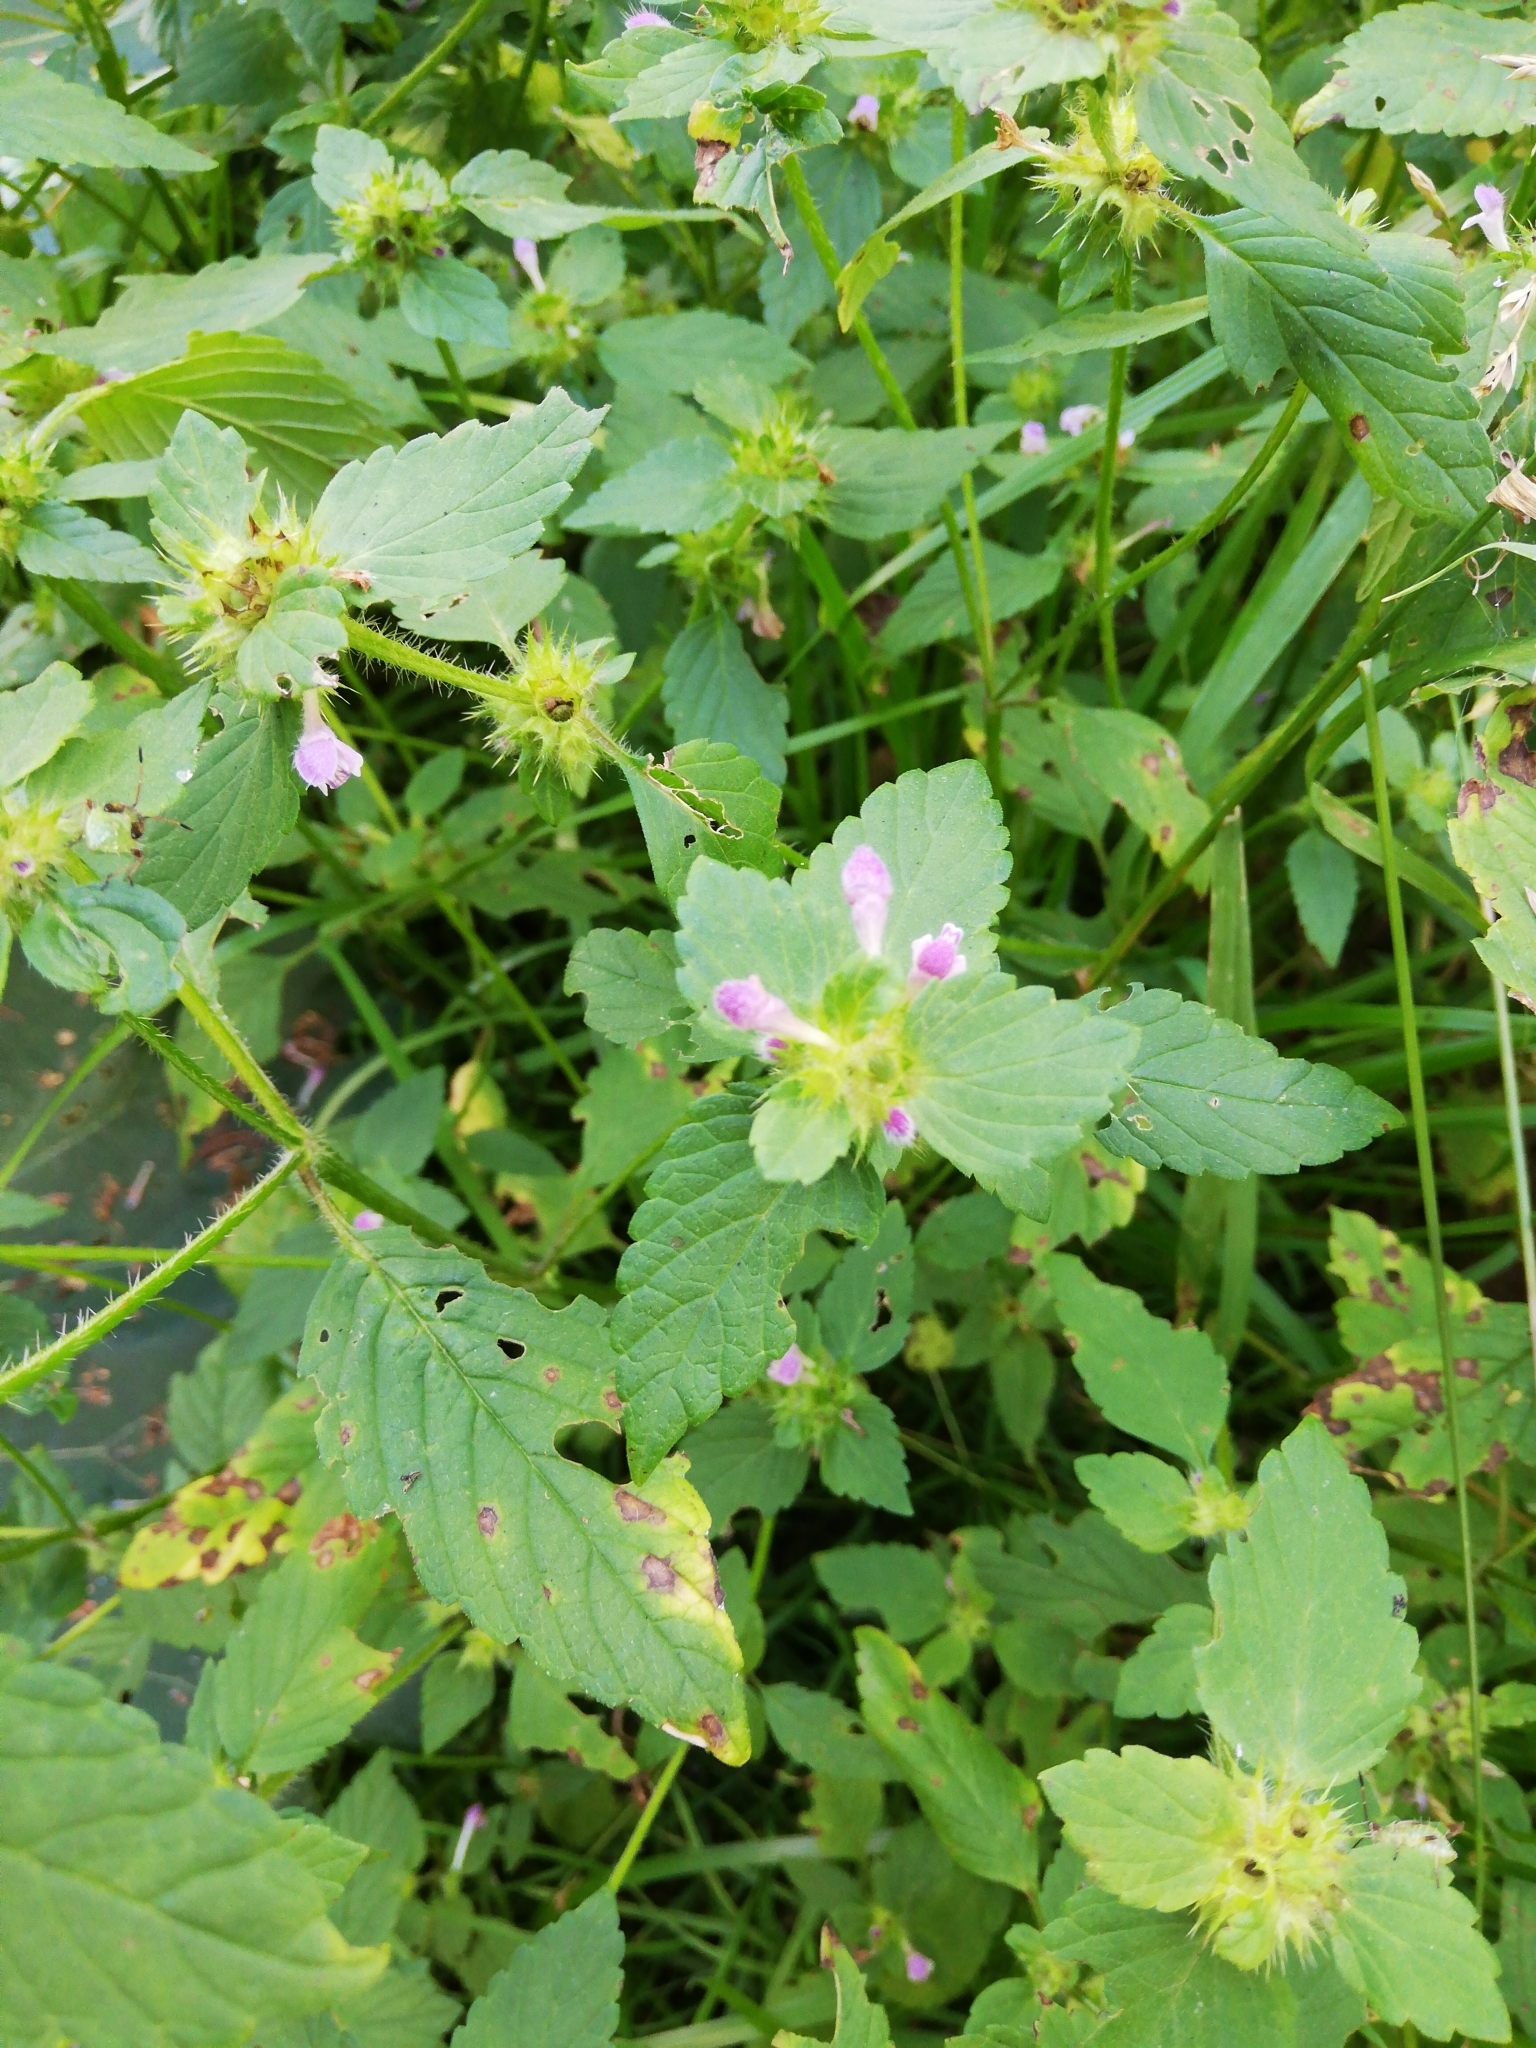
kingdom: Plantae
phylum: Tracheophyta
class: Magnoliopsida
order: Lamiales
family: Lamiaceae
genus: Galeopsis
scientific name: Galeopsis bifida
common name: Bifid hemp-nettle
